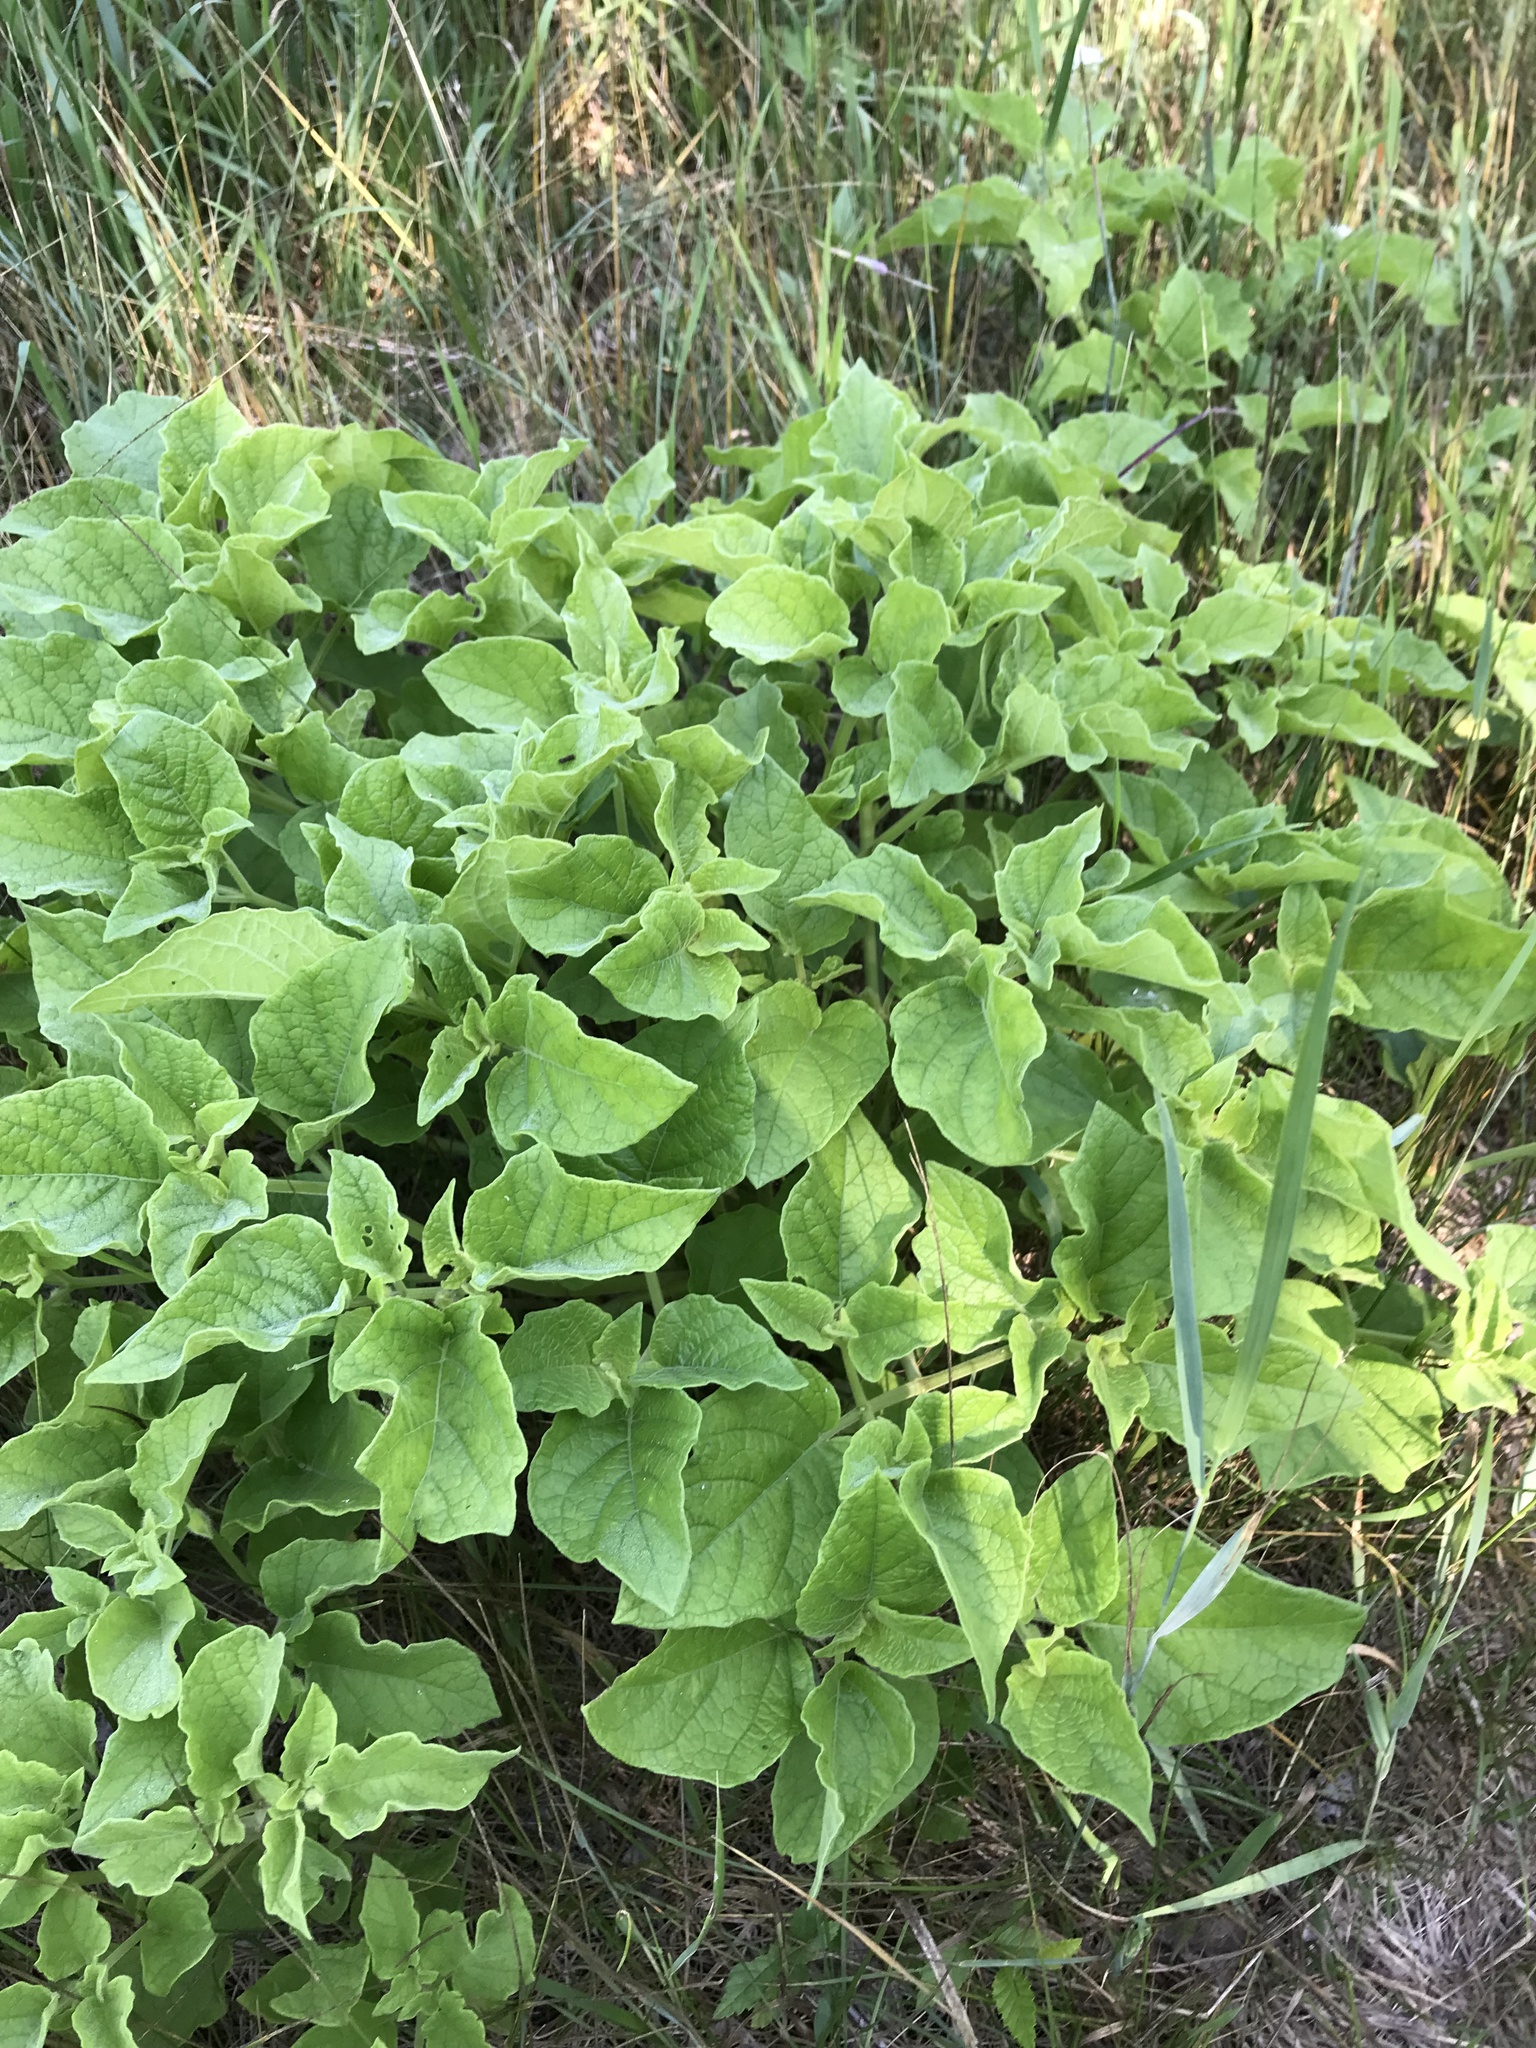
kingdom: Plantae
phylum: Tracheophyta
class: Magnoliopsida
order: Solanales
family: Solanaceae
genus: Physalis
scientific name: Physalis heterophylla
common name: Clammy ground-cherry
